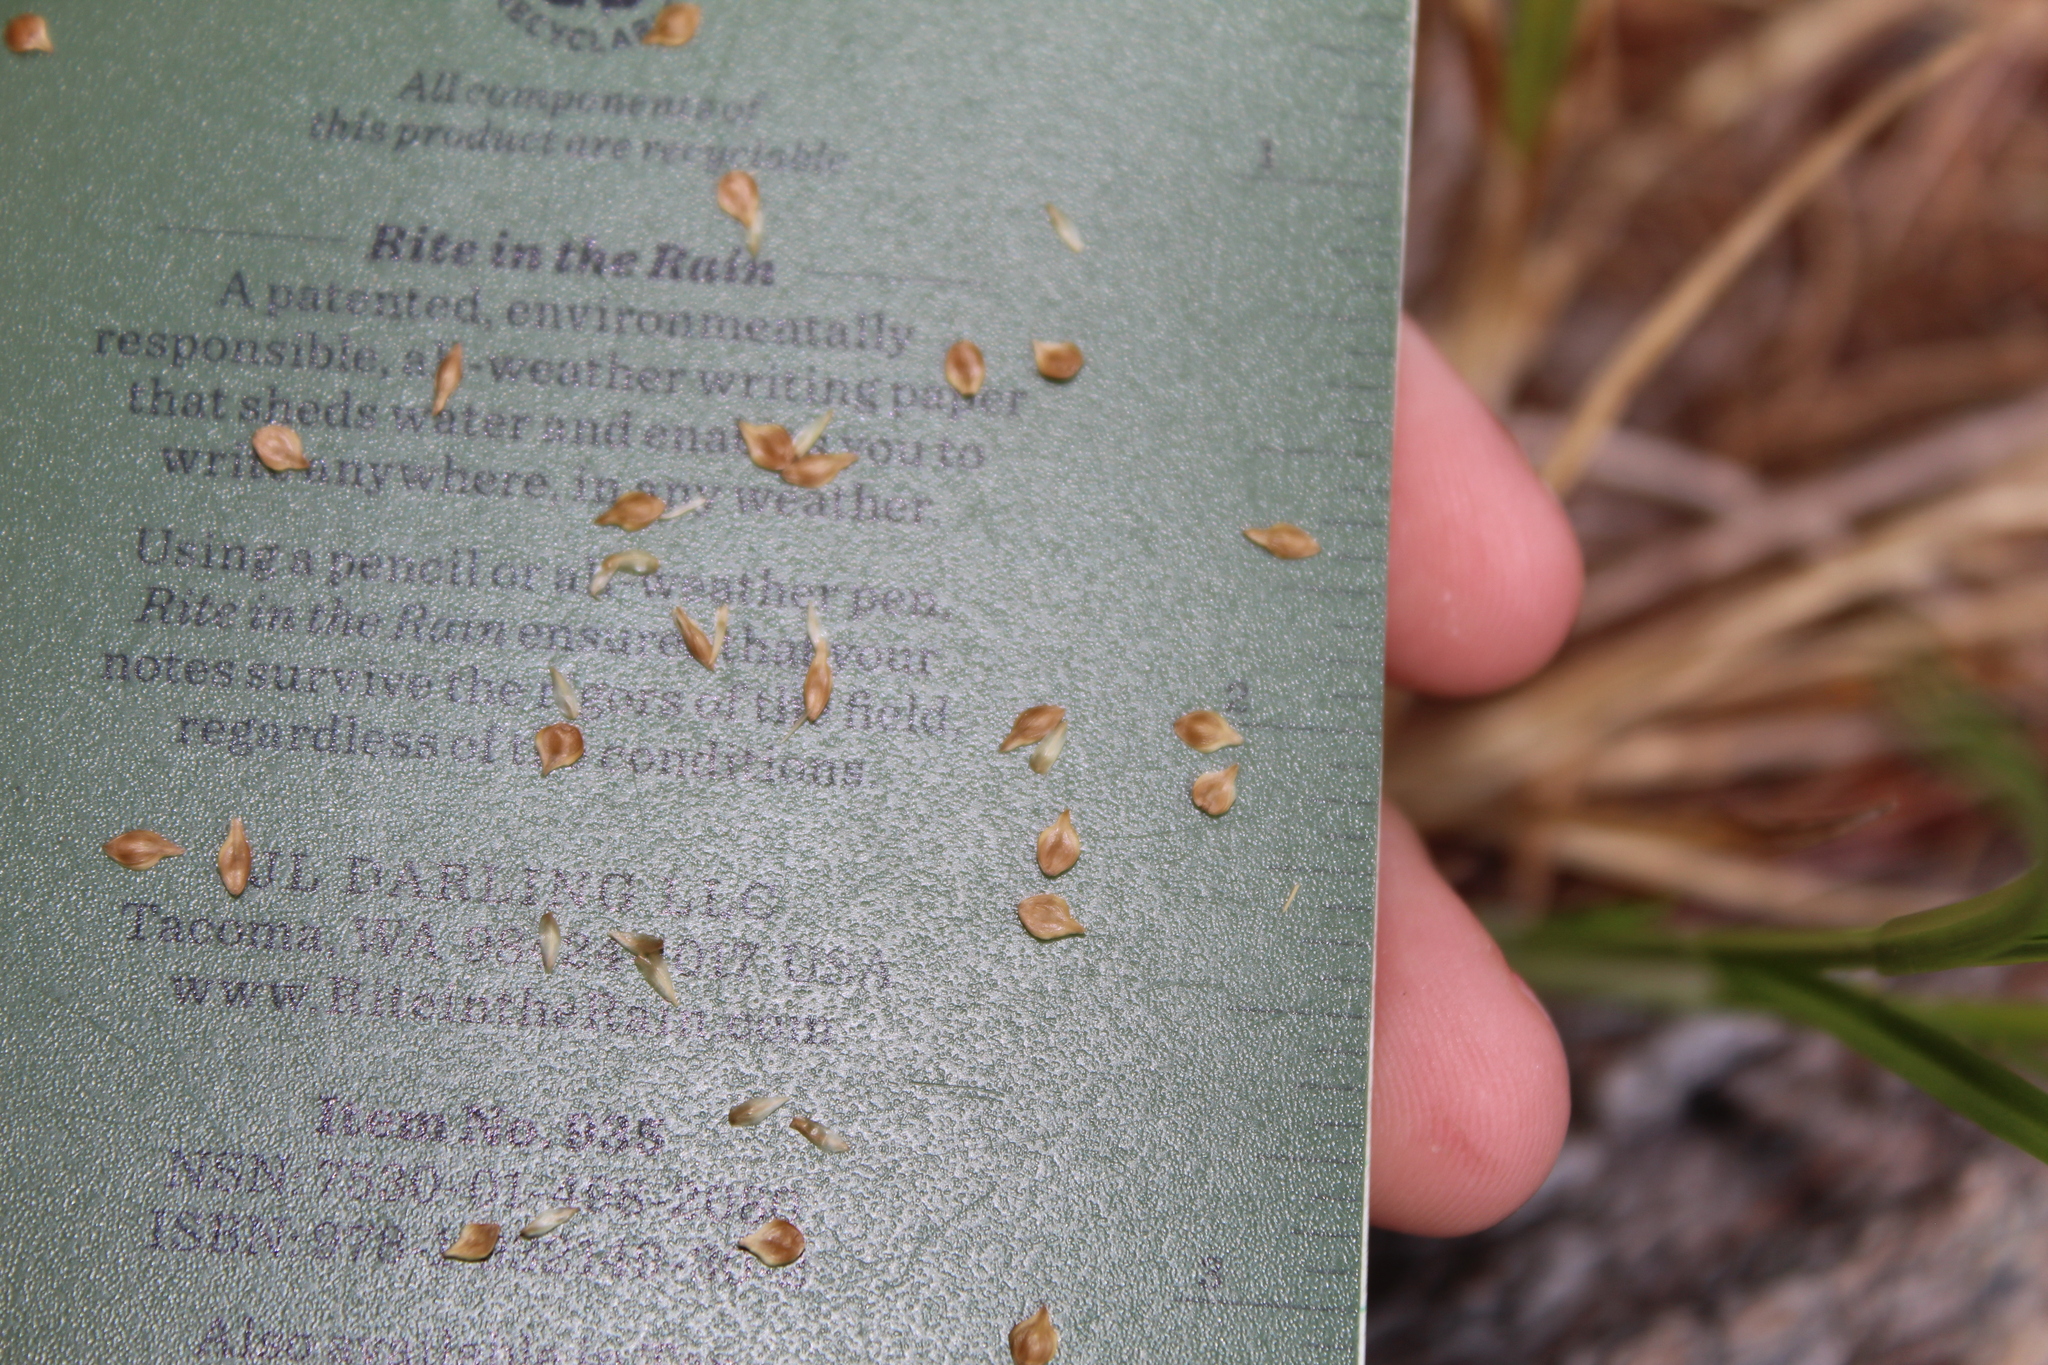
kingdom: Plantae
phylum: Tracheophyta
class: Liliopsida
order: Poales
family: Cyperaceae
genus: Carex
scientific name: Carex longii
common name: Long's sedge
